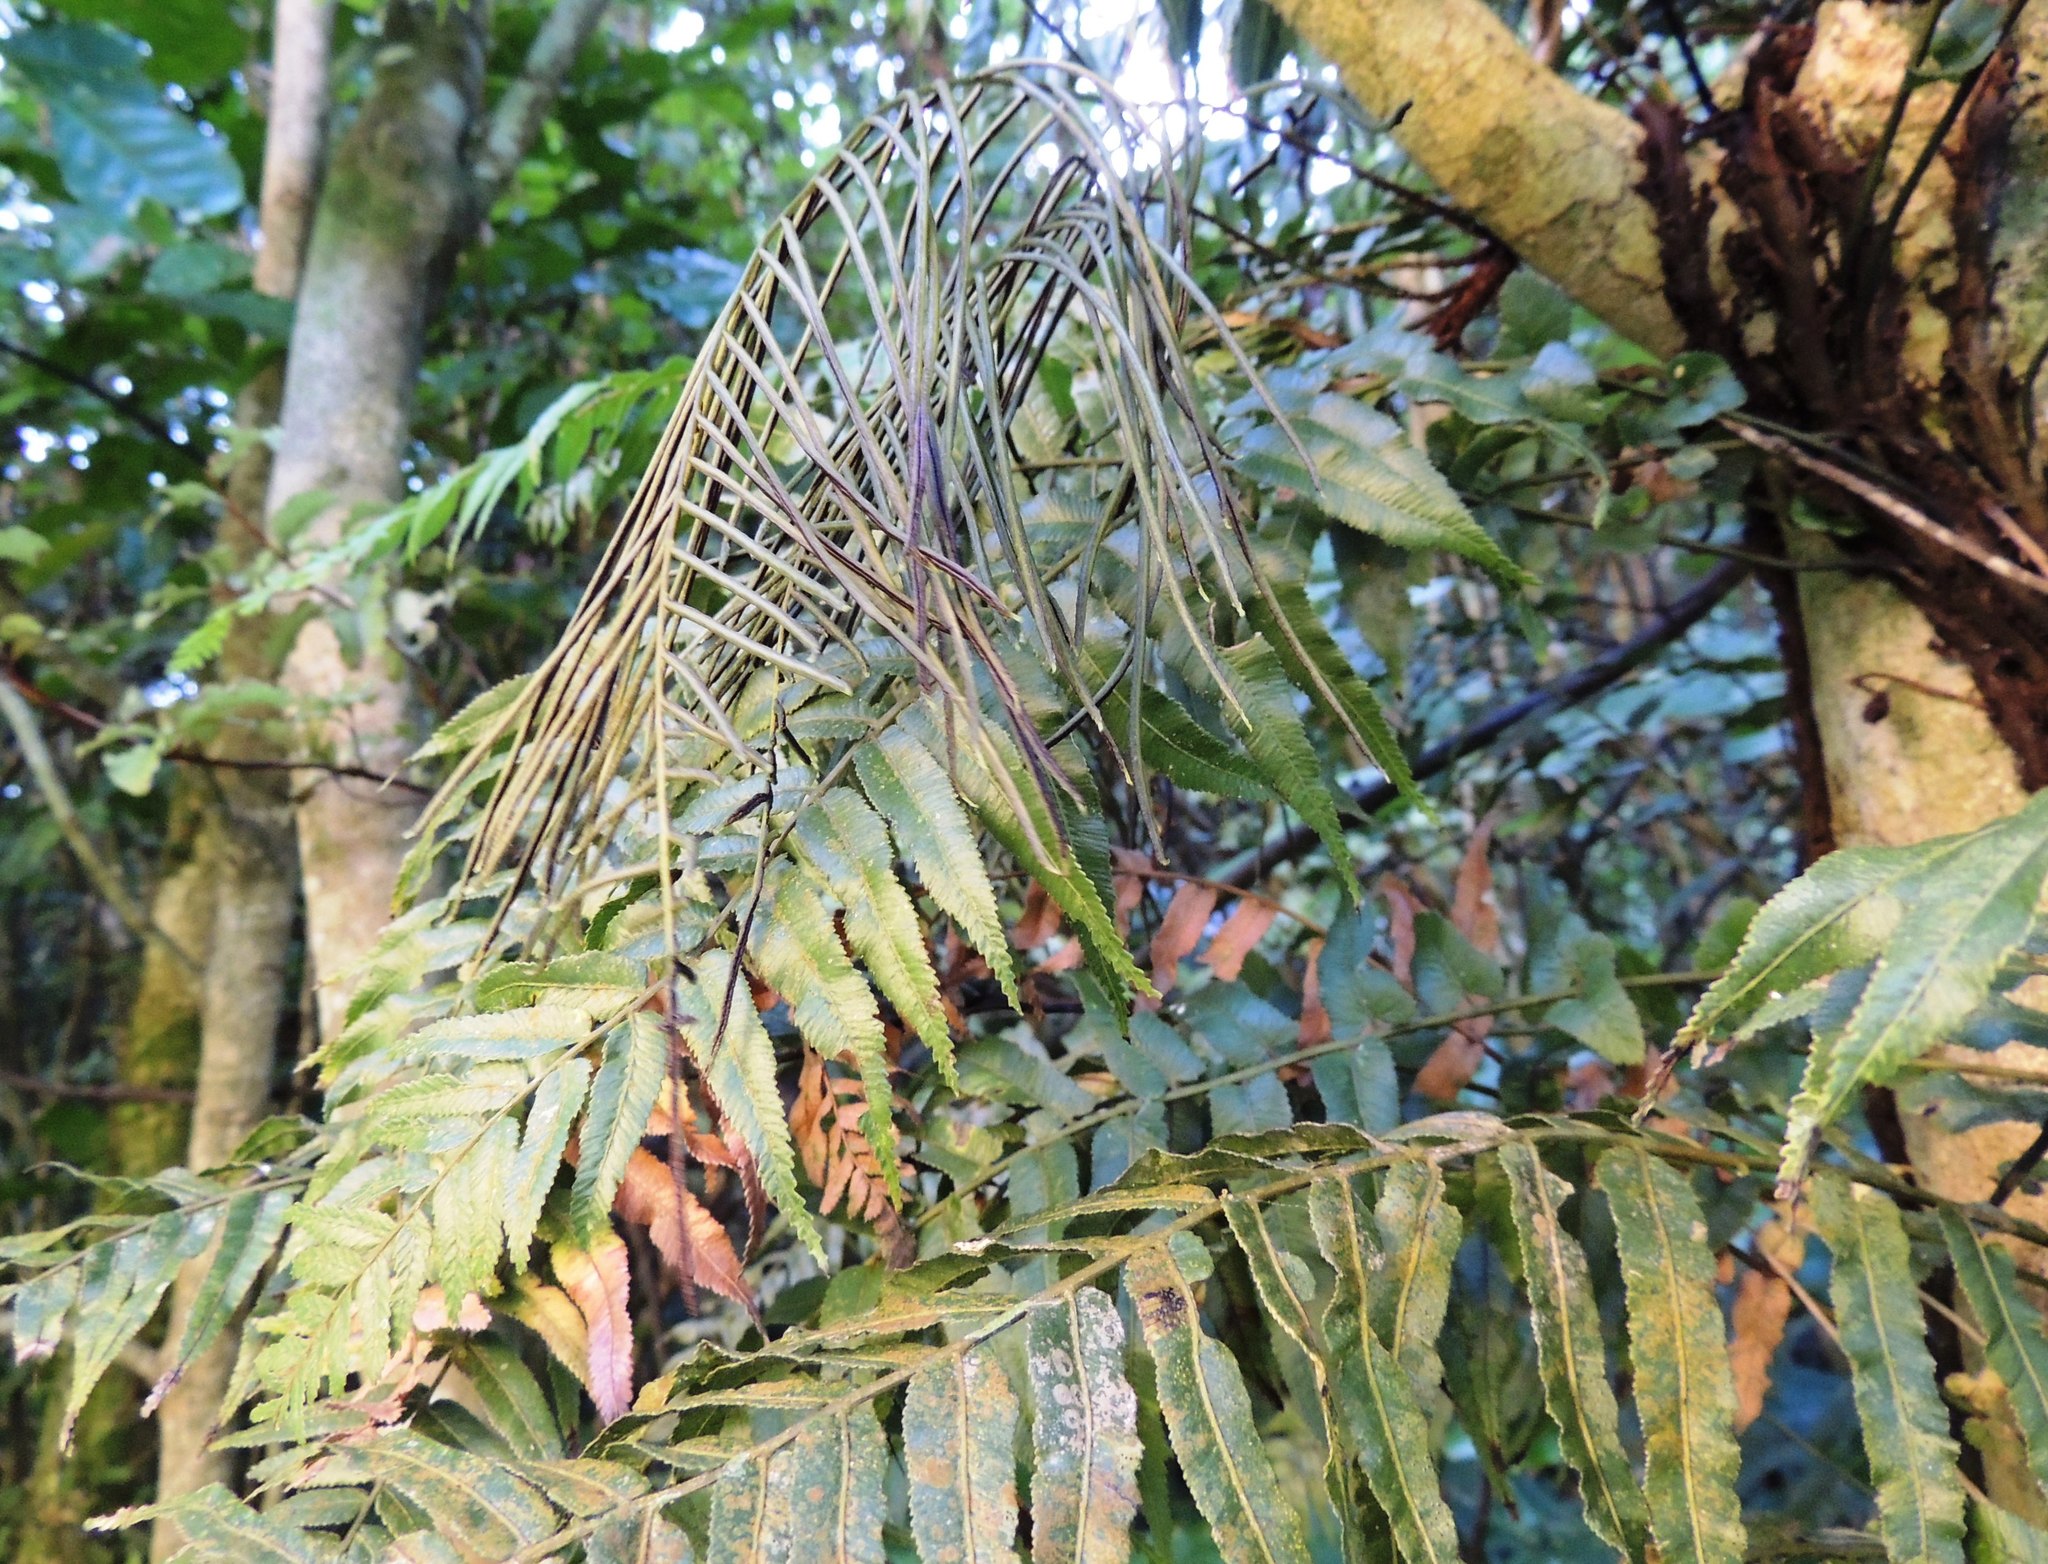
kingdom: Plantae
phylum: Tracheophyta
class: Polypodiopsida
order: Polypodiales
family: Blechnaceae
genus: Icarus
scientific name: Icarus filiformis
